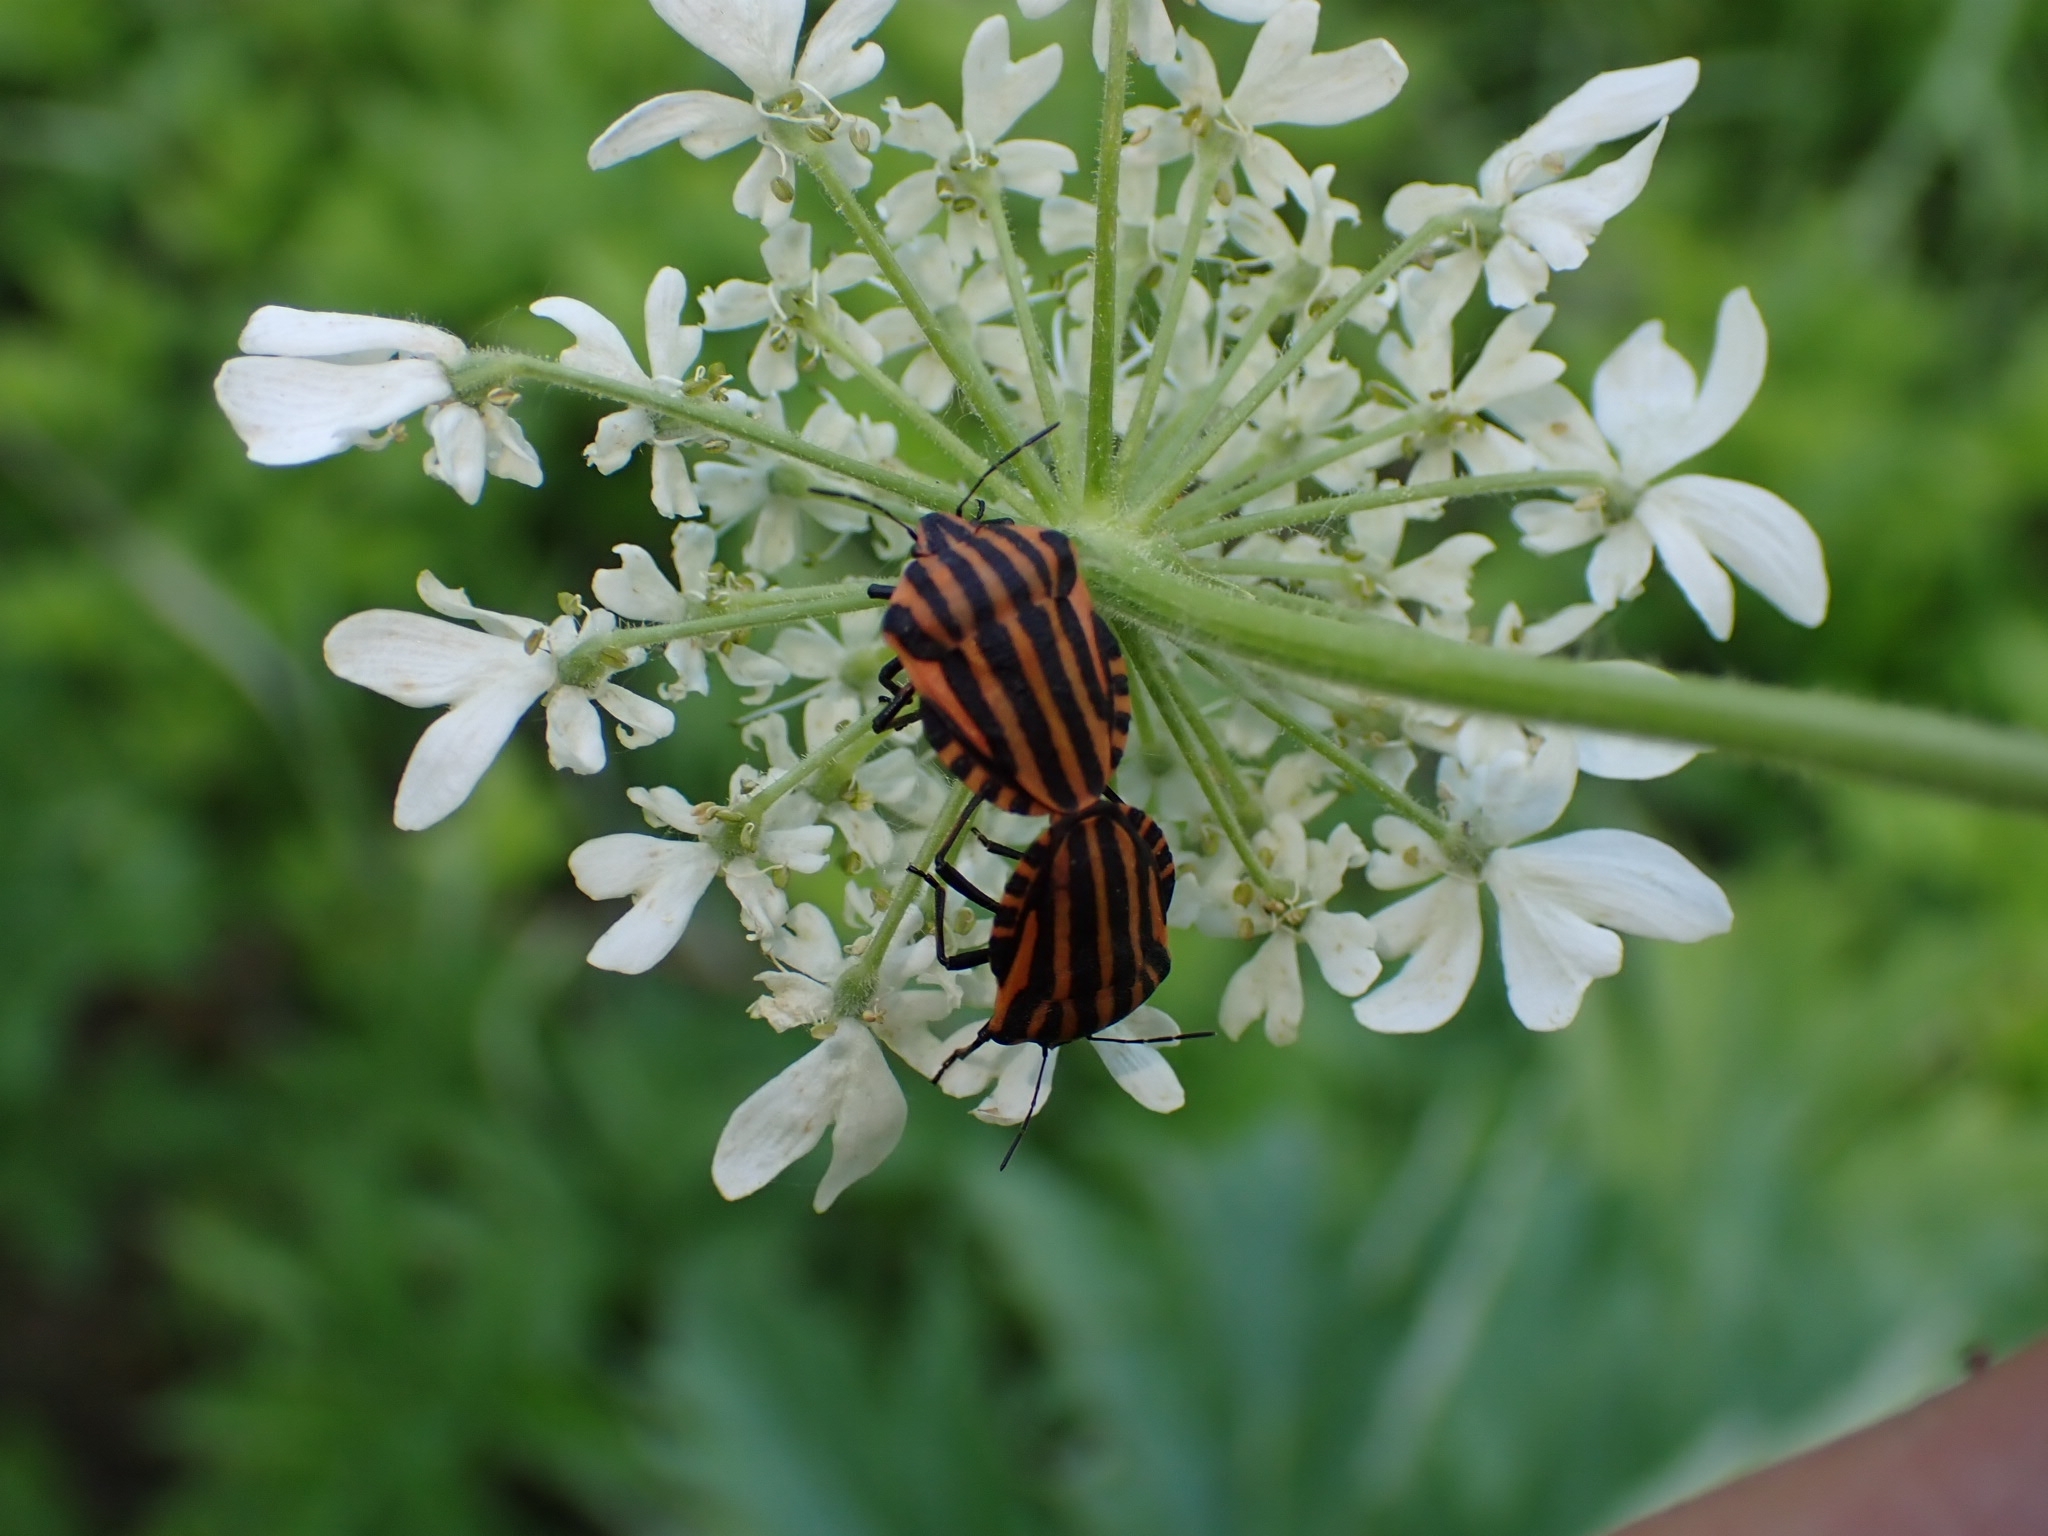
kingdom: Animalia
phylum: Arthropoda
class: Insecta
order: Hemiptera
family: Pentatomidae
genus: Graphosoma
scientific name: Graphosoma italicum
